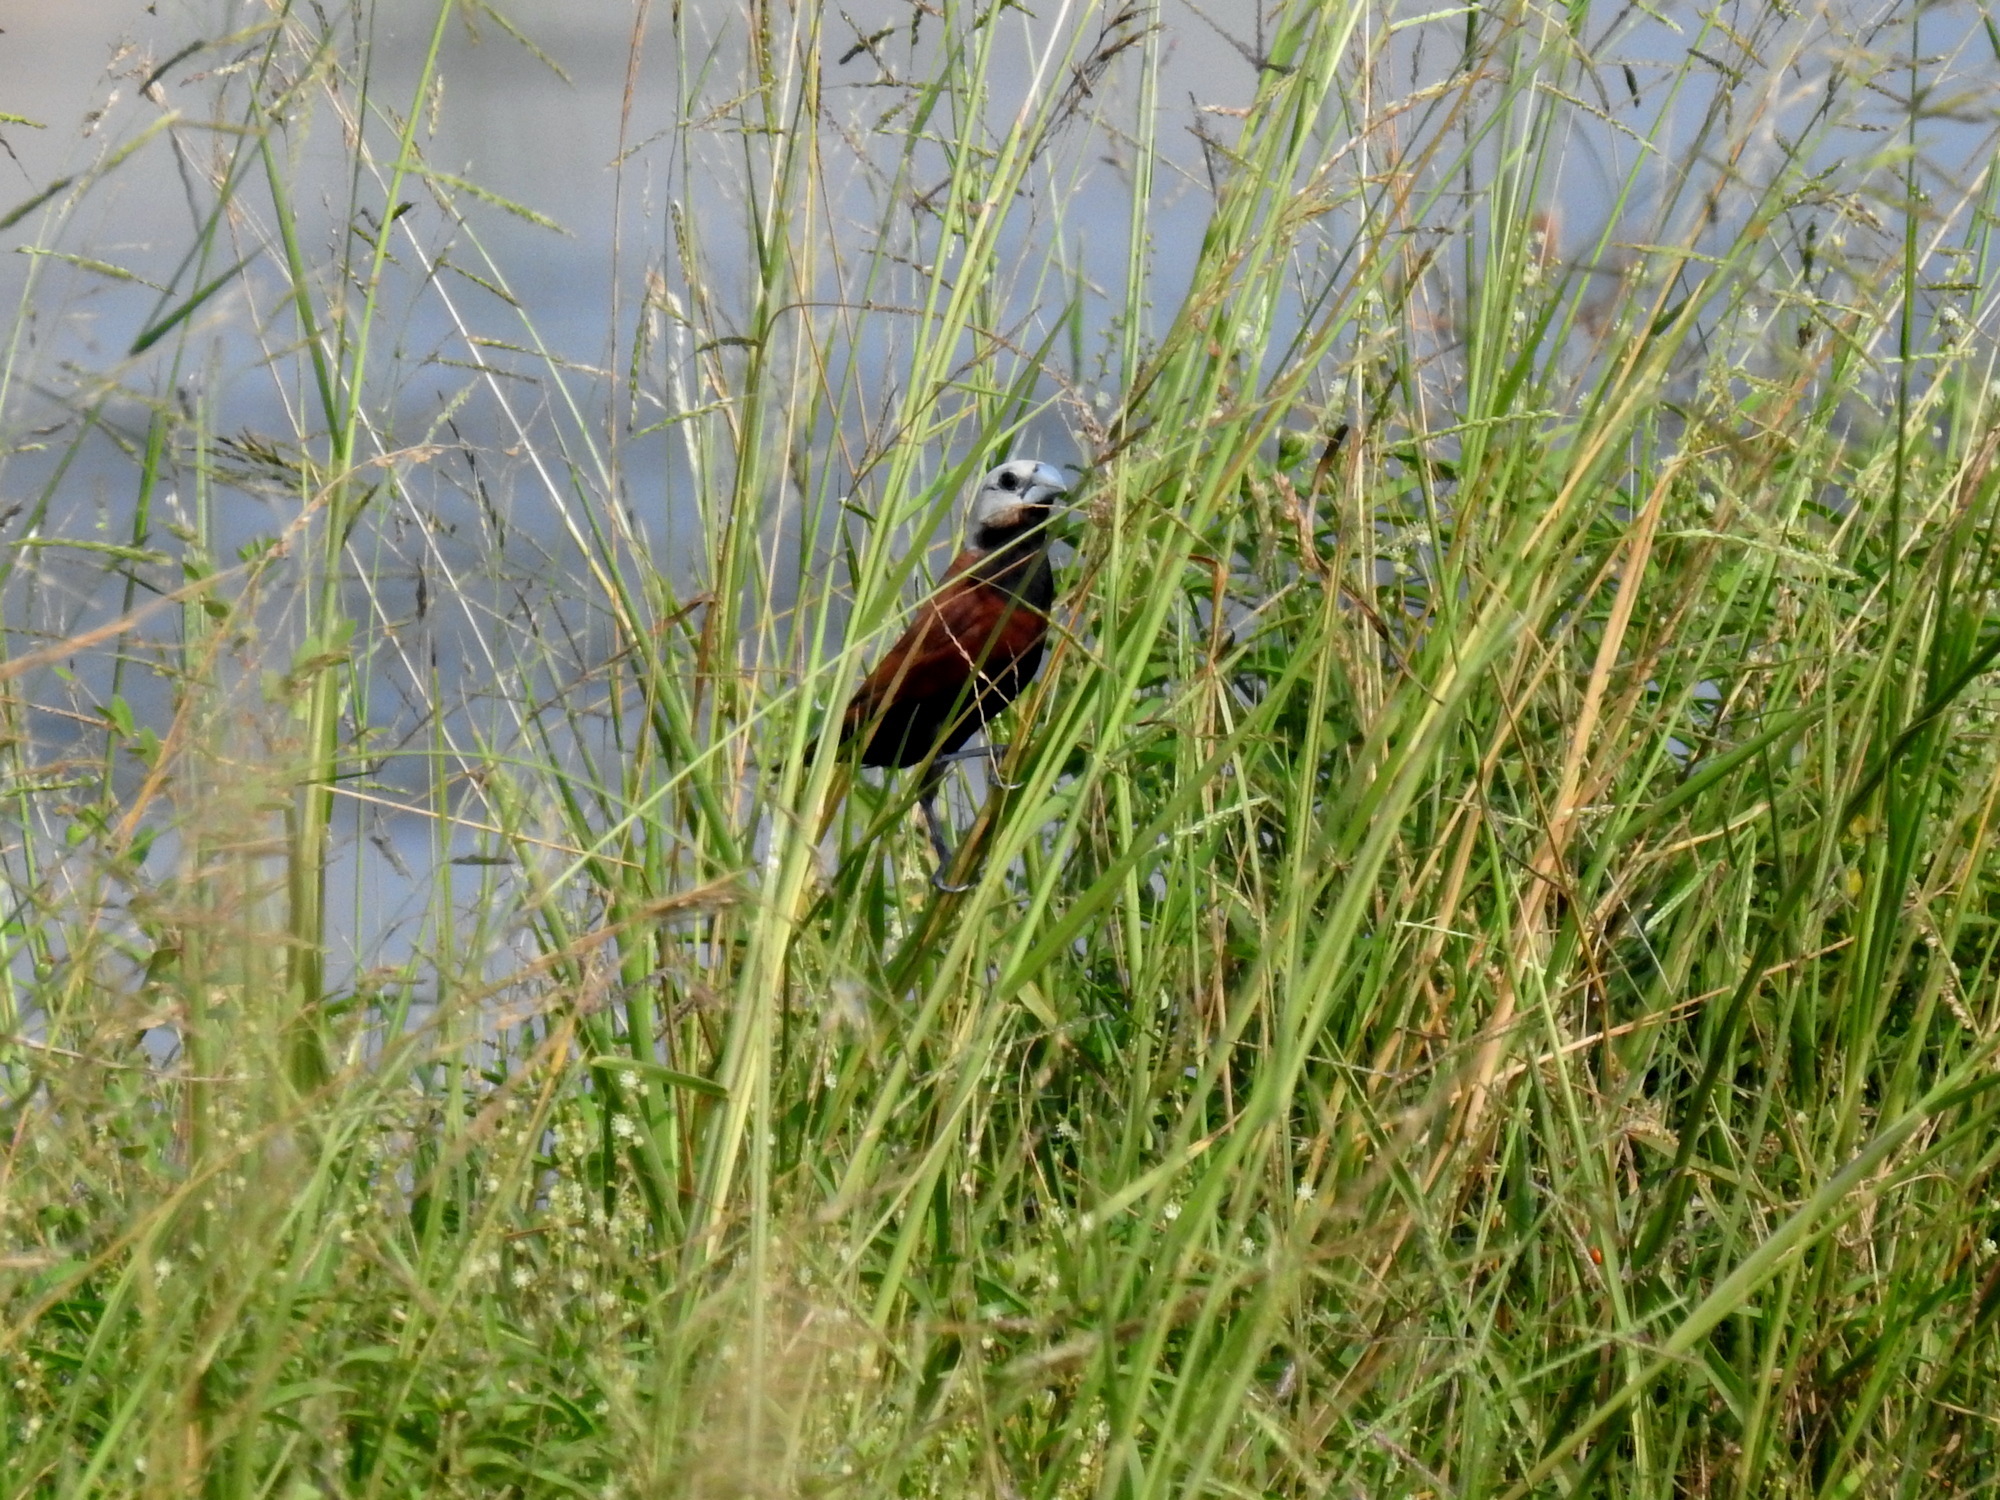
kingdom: Animalia
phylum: Chordata
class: Aves
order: Passeriformes
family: Estrildidae
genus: Lonchura
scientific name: Lonchura ferruginosa
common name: White-capped munia
